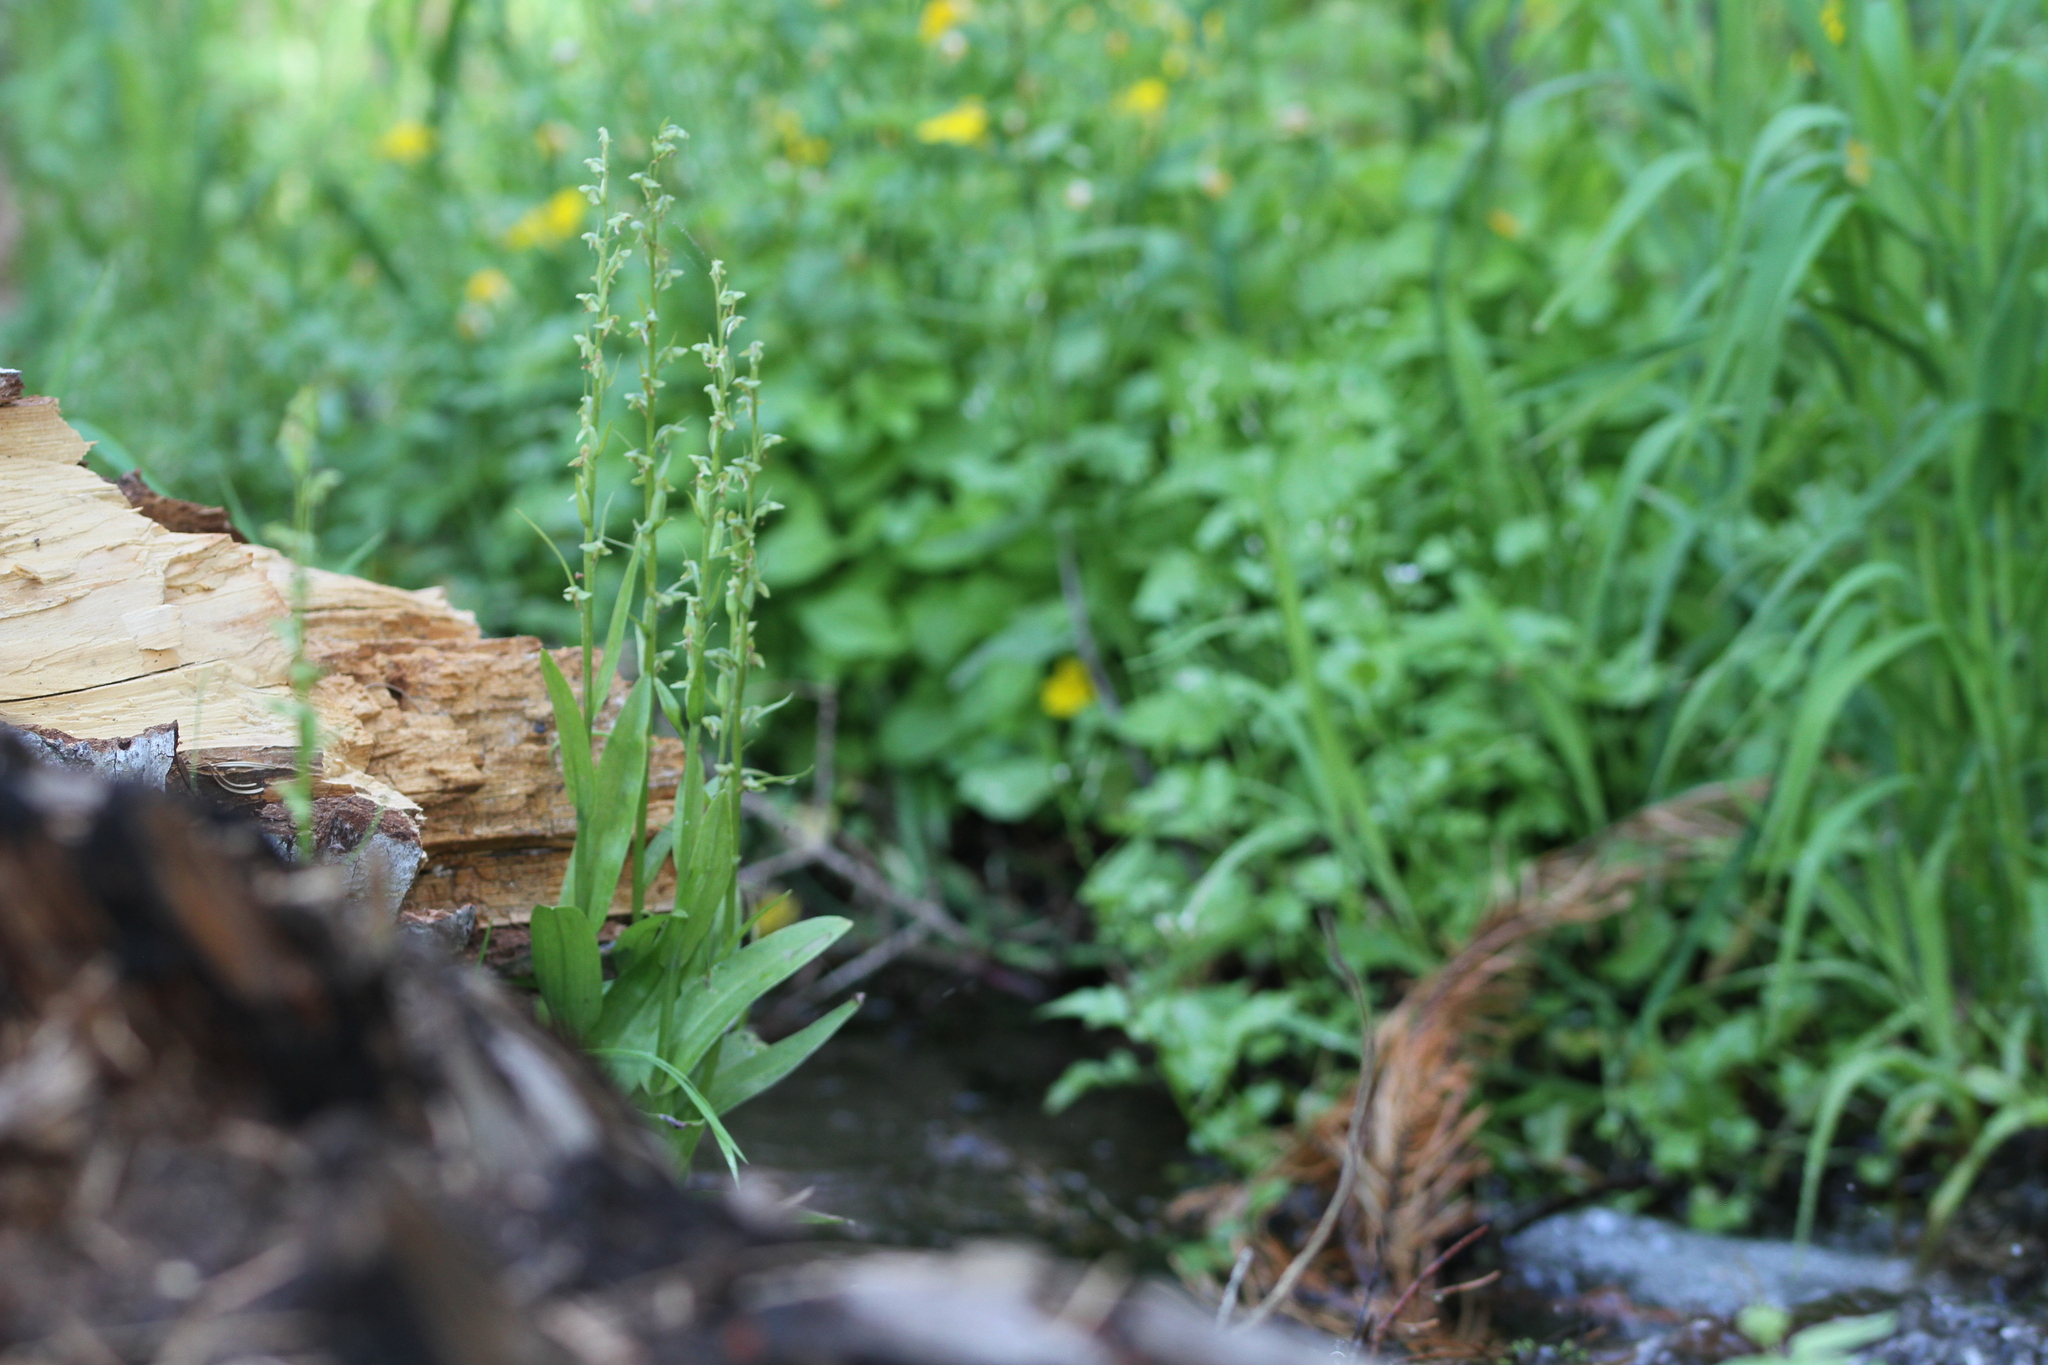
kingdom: Plantae
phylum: Tracheophyta
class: Liliopsida
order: Asparagales
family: Orchidaceae
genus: Platanthera
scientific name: Platanthera sparsiflora
